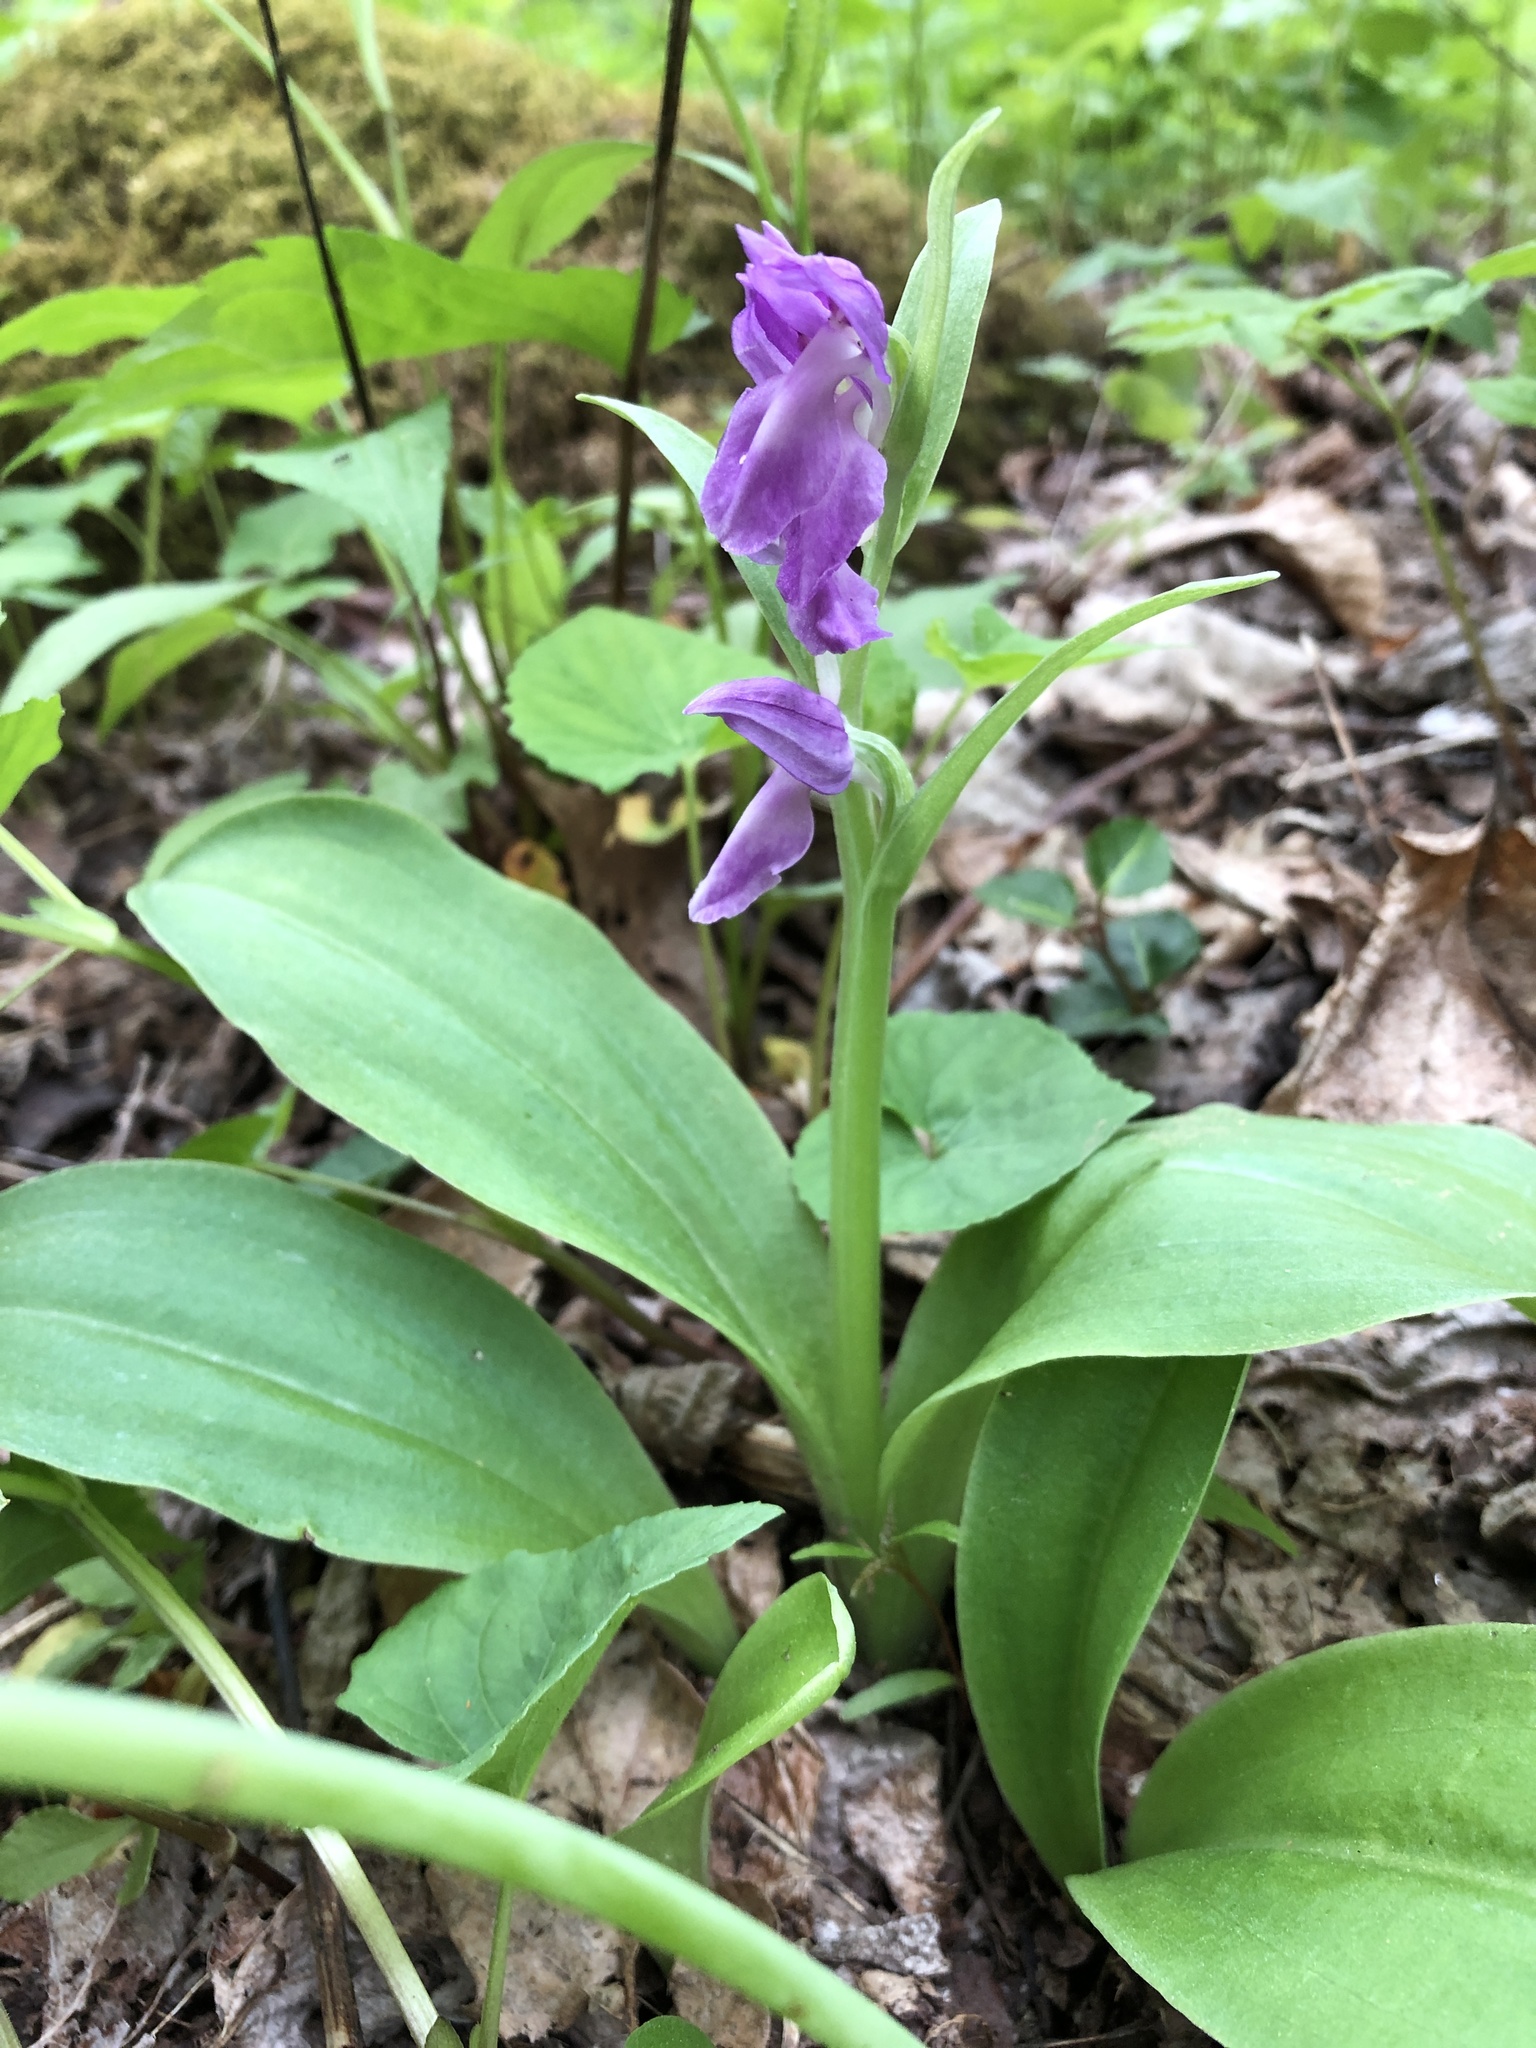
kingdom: Plantae
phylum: Tracheophyta
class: Liliopsida
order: Asparagales
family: Orchidaceae
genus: Galearis
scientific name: Galearis spectabilis
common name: Purple-hooded orchis
